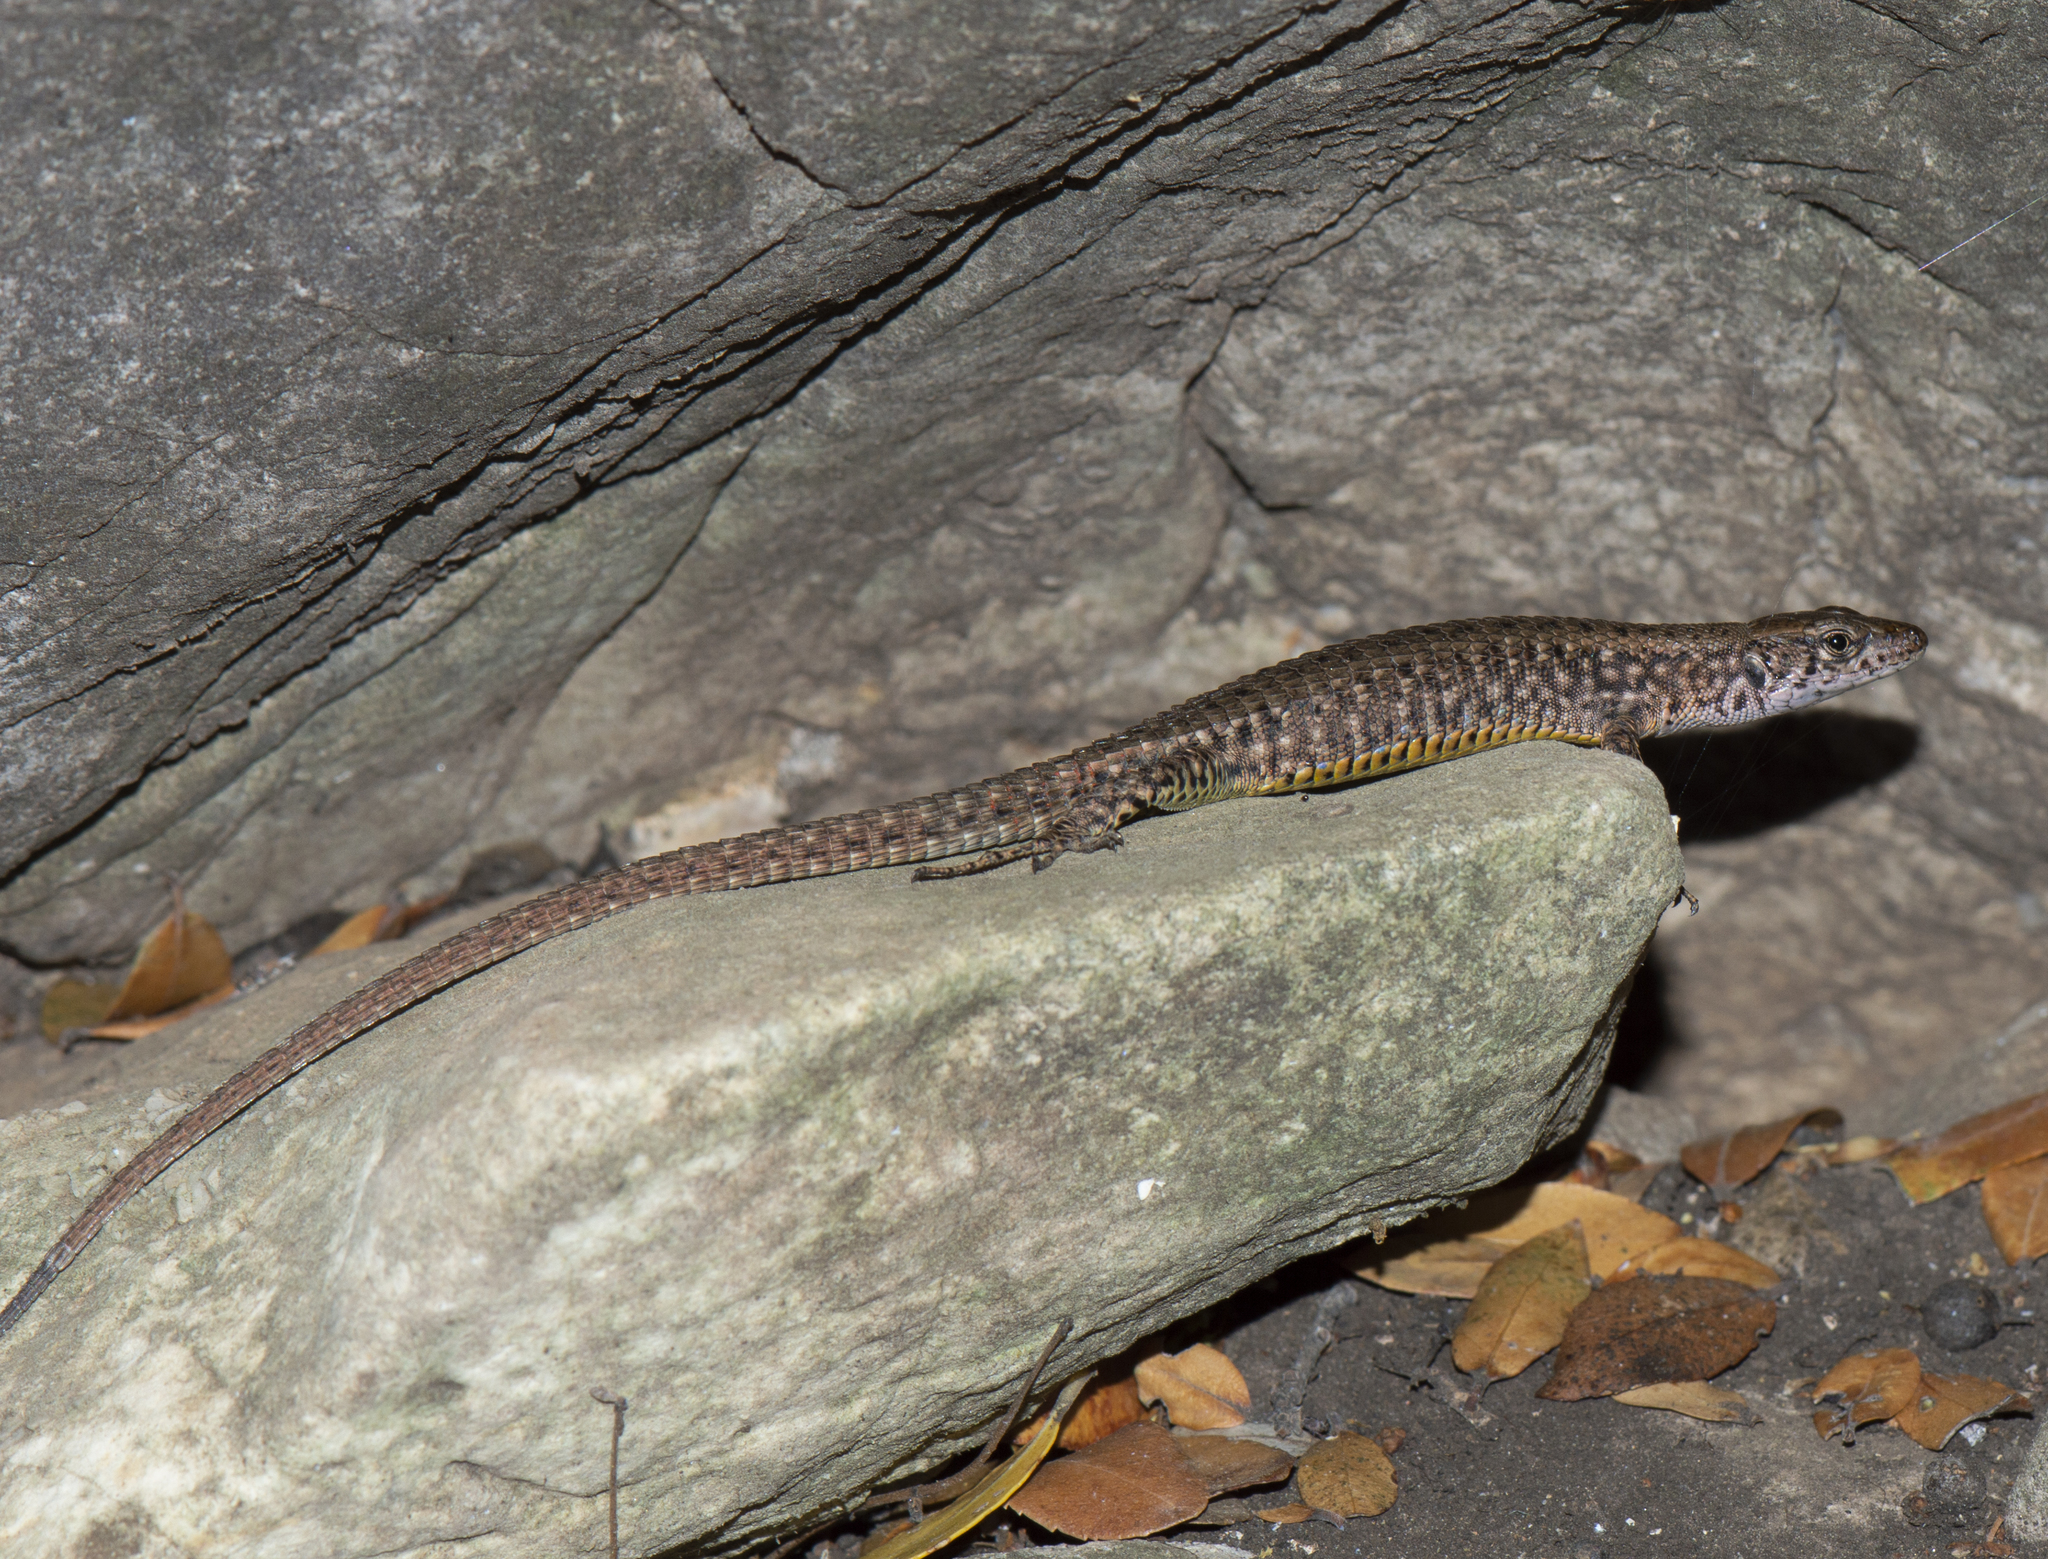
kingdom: Animalia
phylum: Chordata
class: Squamata
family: Lacertidae
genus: Algyroides
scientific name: Algyroides nigropunctatus
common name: Blue-throated keeled lizard
